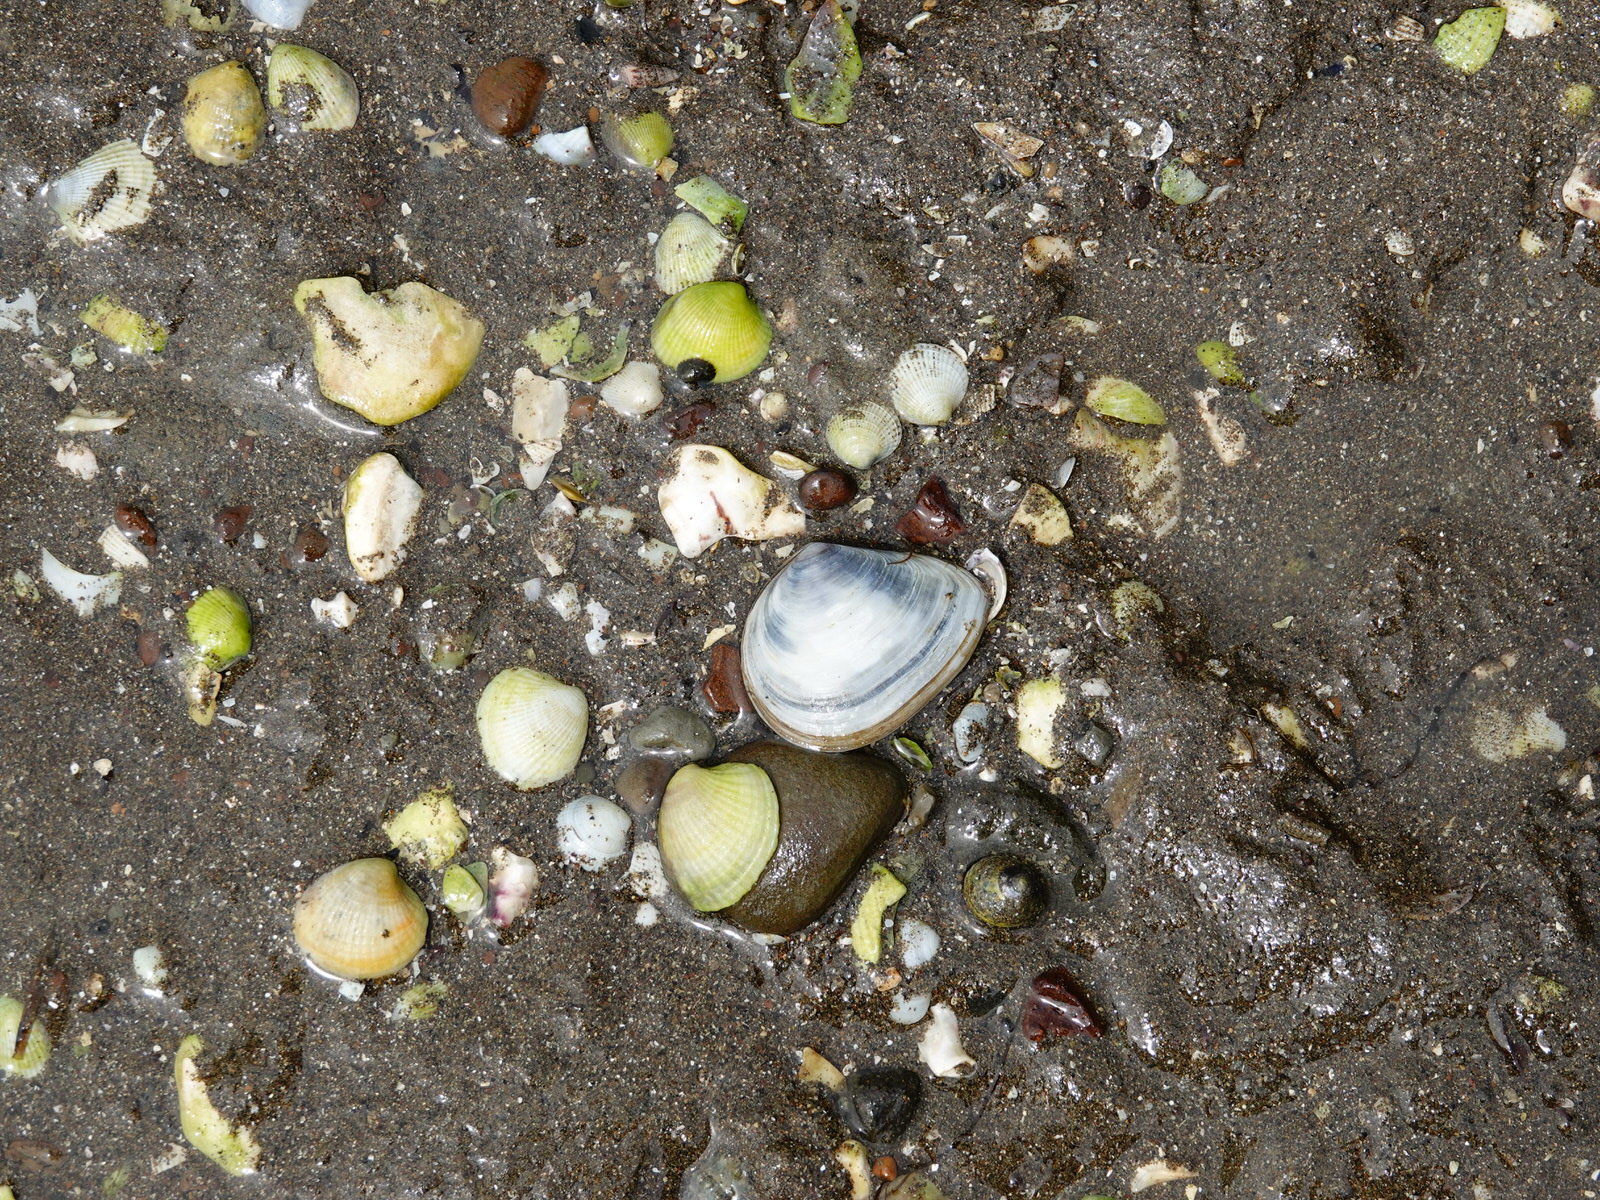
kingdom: Animalia
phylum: Mollusca
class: Bivalvia
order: Cardiida
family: Tellinidae
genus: Macomona
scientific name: Macomona liliana
